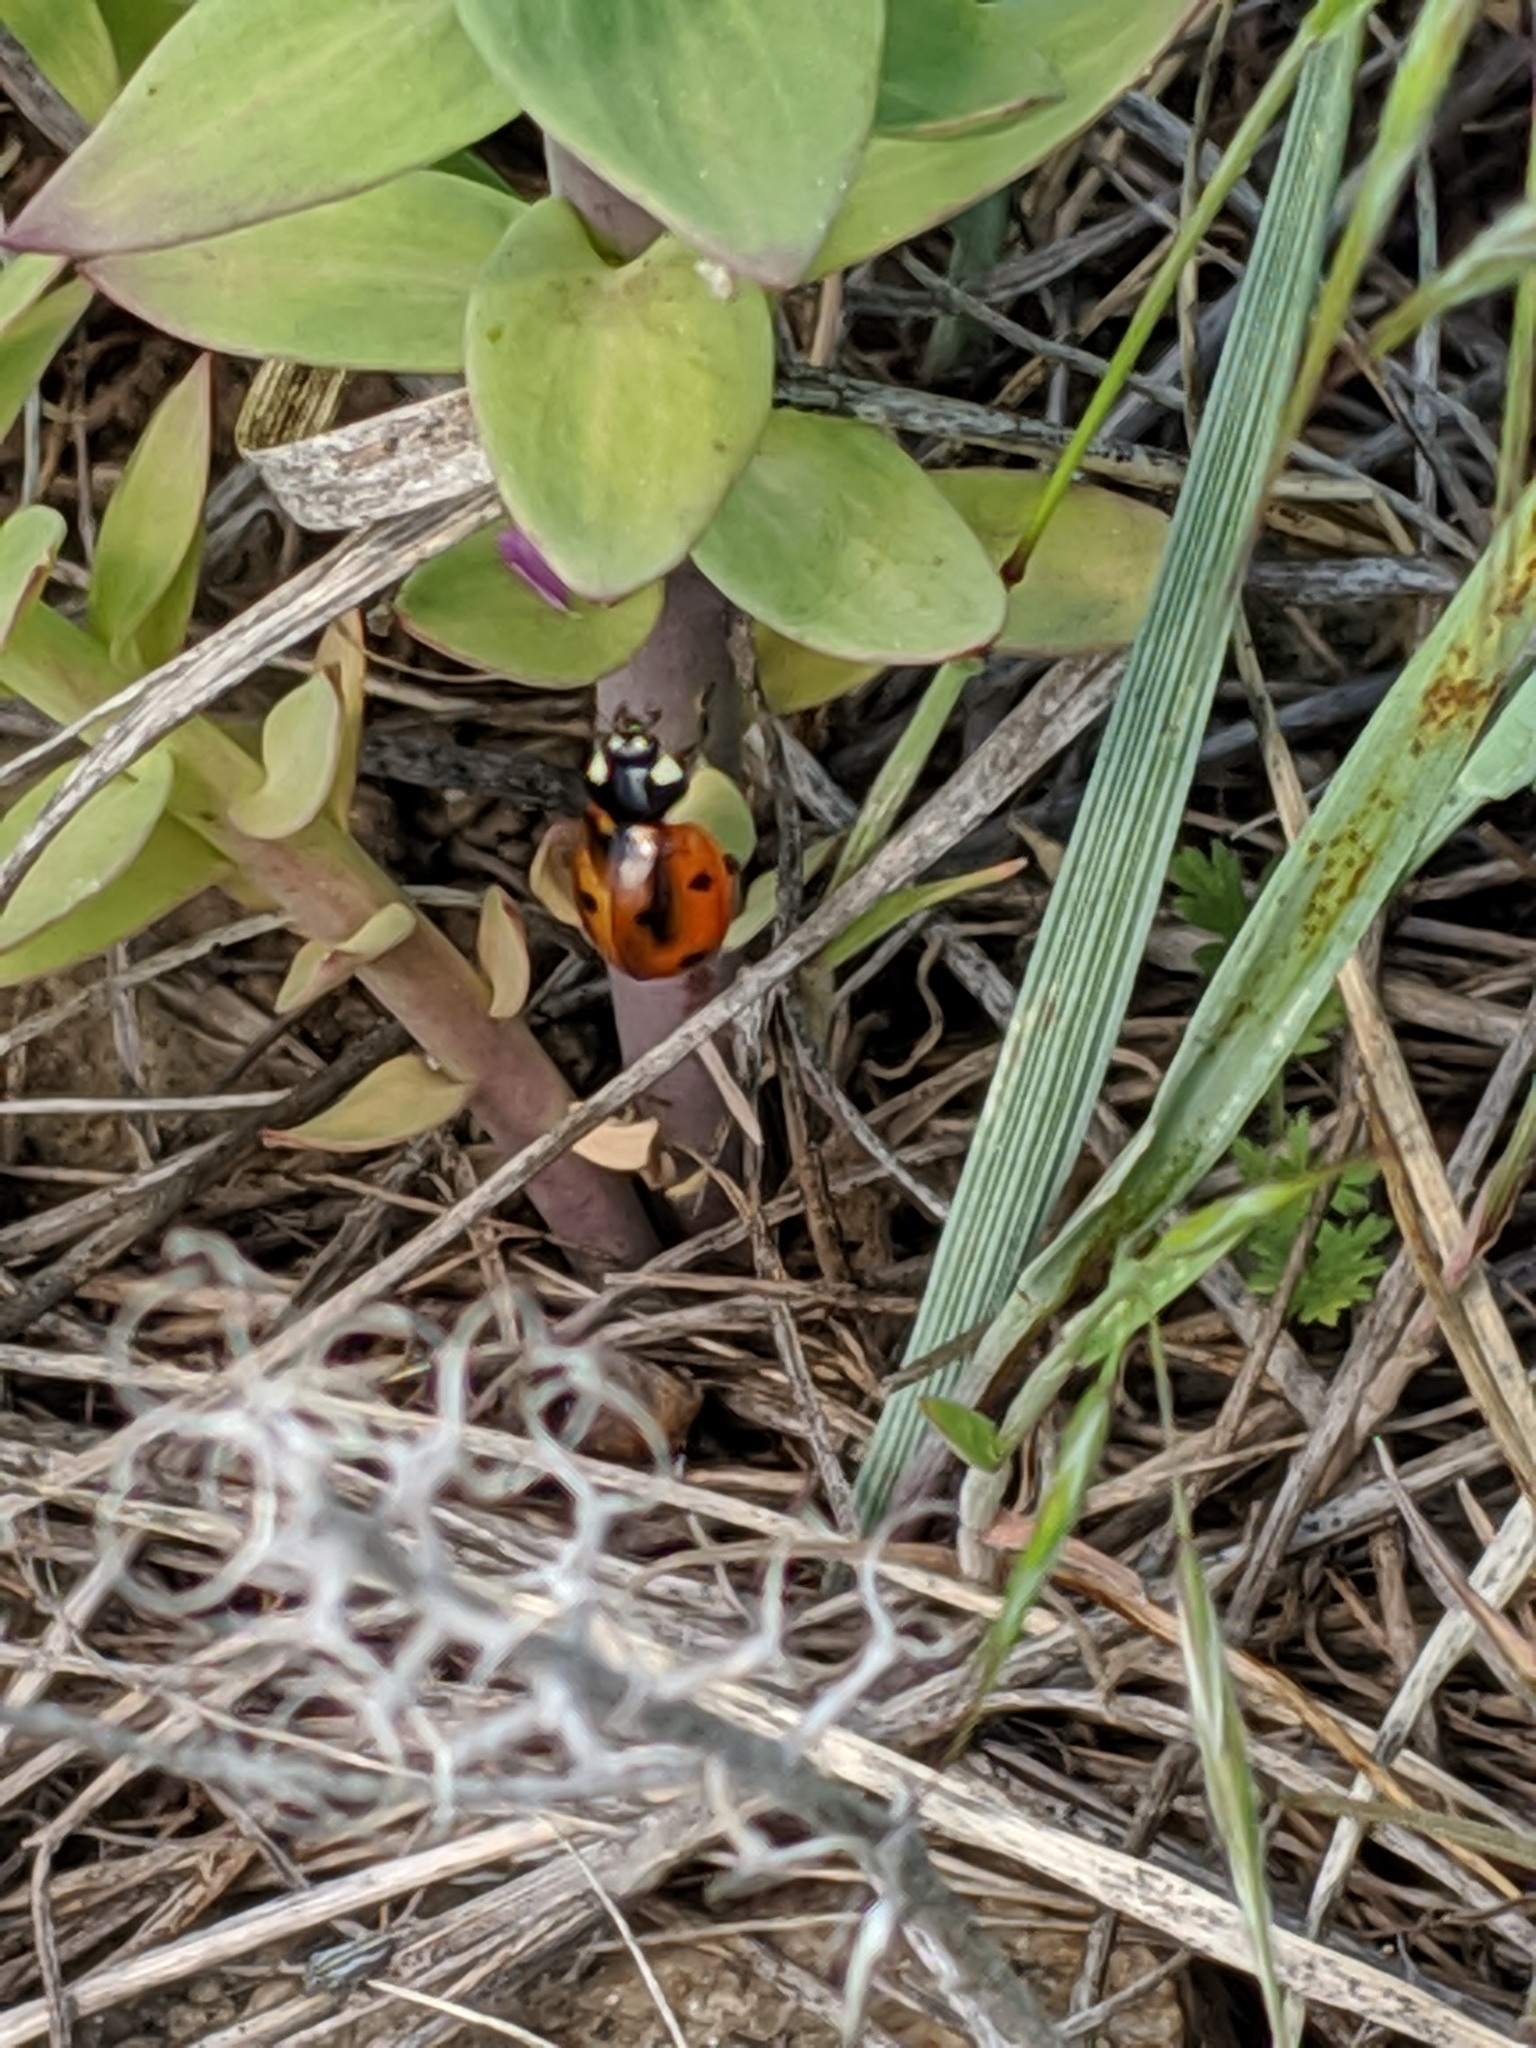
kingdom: Animalia
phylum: Arthropoda
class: Insecta
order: Coleoptera
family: Coccinellidae
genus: Coccinella
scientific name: Coccinella septempunctata
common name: Sevenspotted lady beetle
